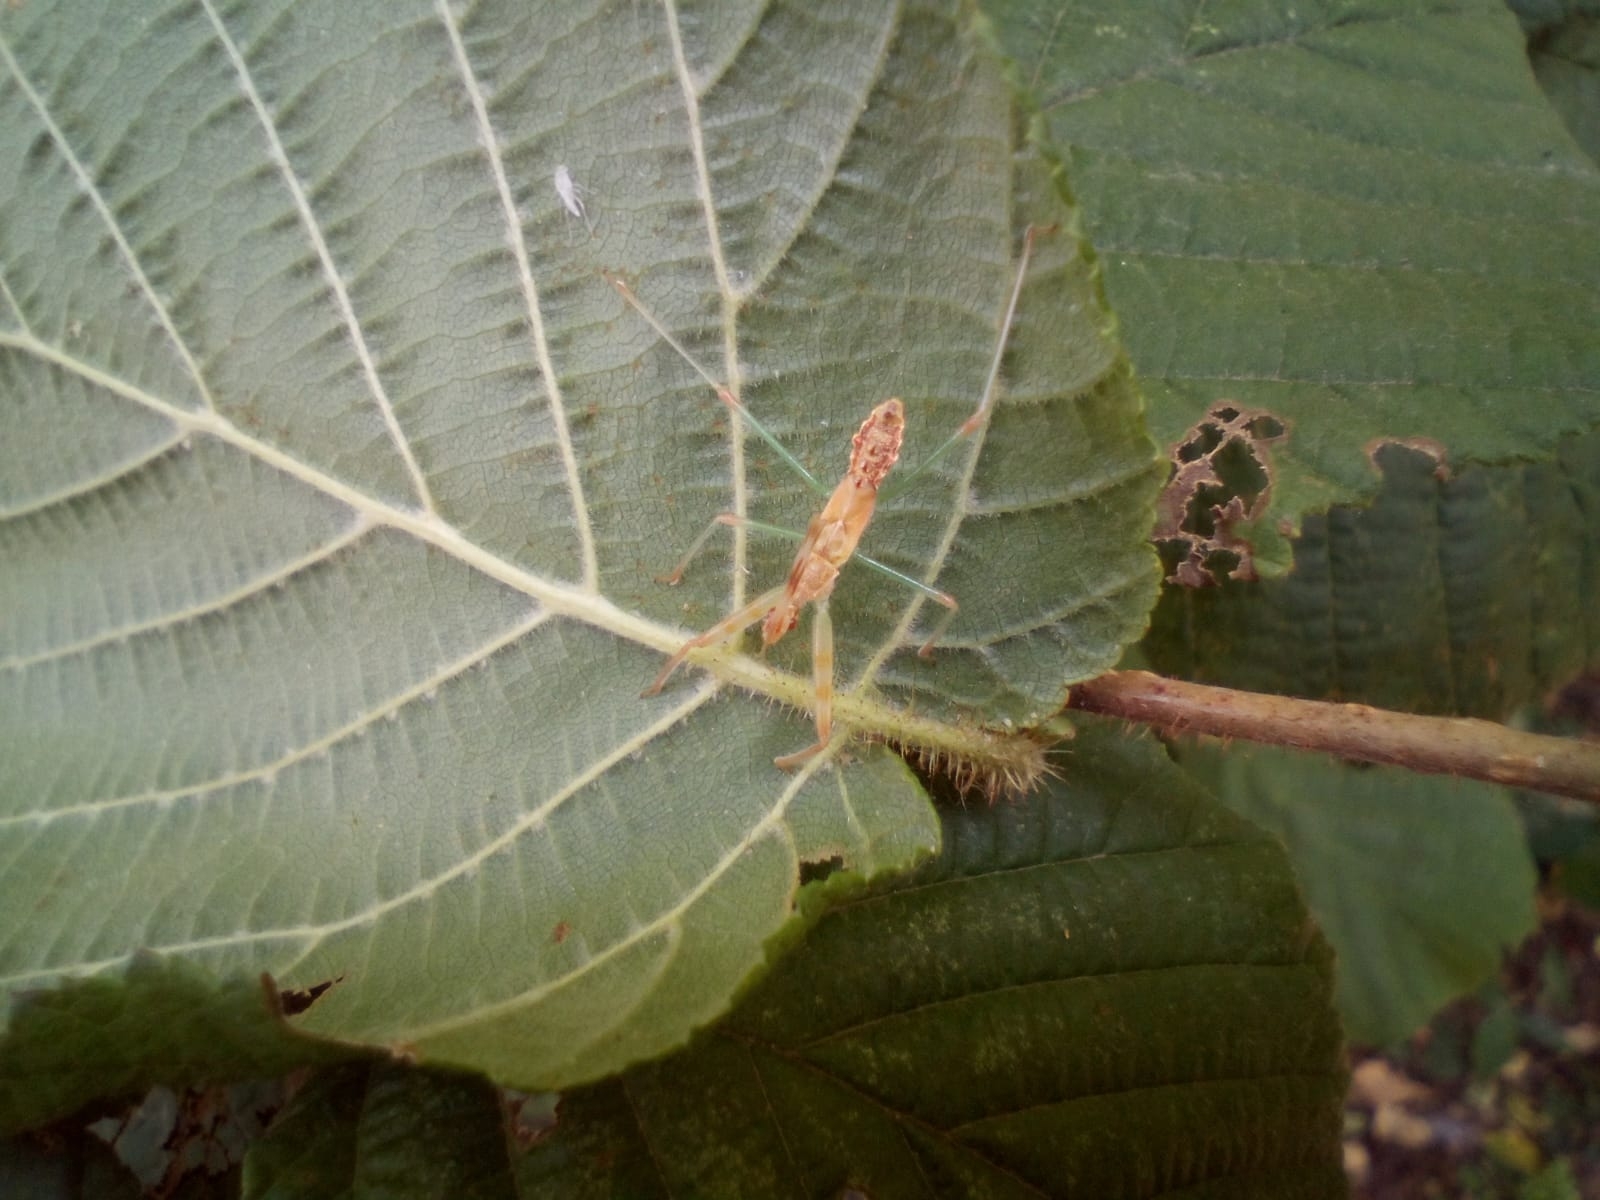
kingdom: Animalia
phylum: Arthropoda
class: Insecta
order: Hemiptera
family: Reduviidae
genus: Nagusta
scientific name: Nagusta goedelii
